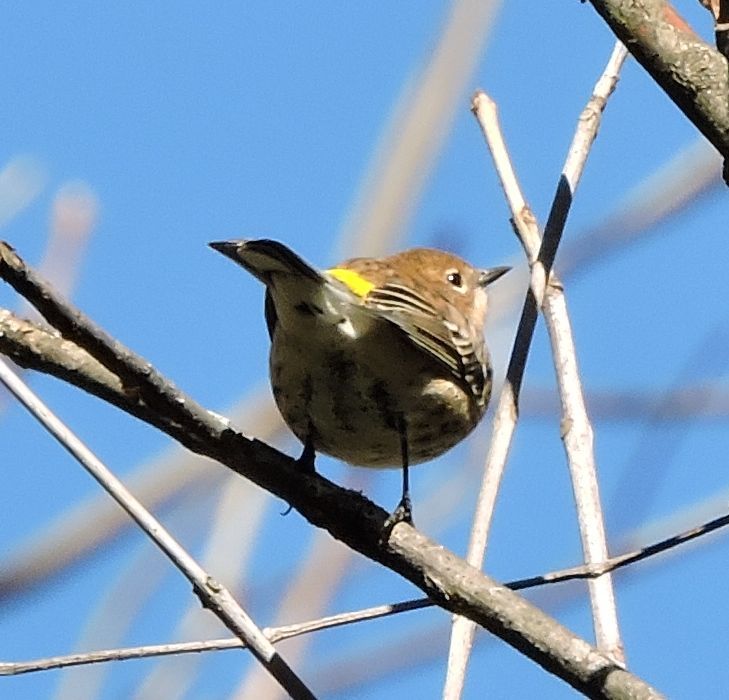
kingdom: Animalia
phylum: Chordata
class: Aves
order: Passeriformes
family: Parulidae
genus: Setophaga
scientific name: Setophaga coronata
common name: Myrtle warbler
